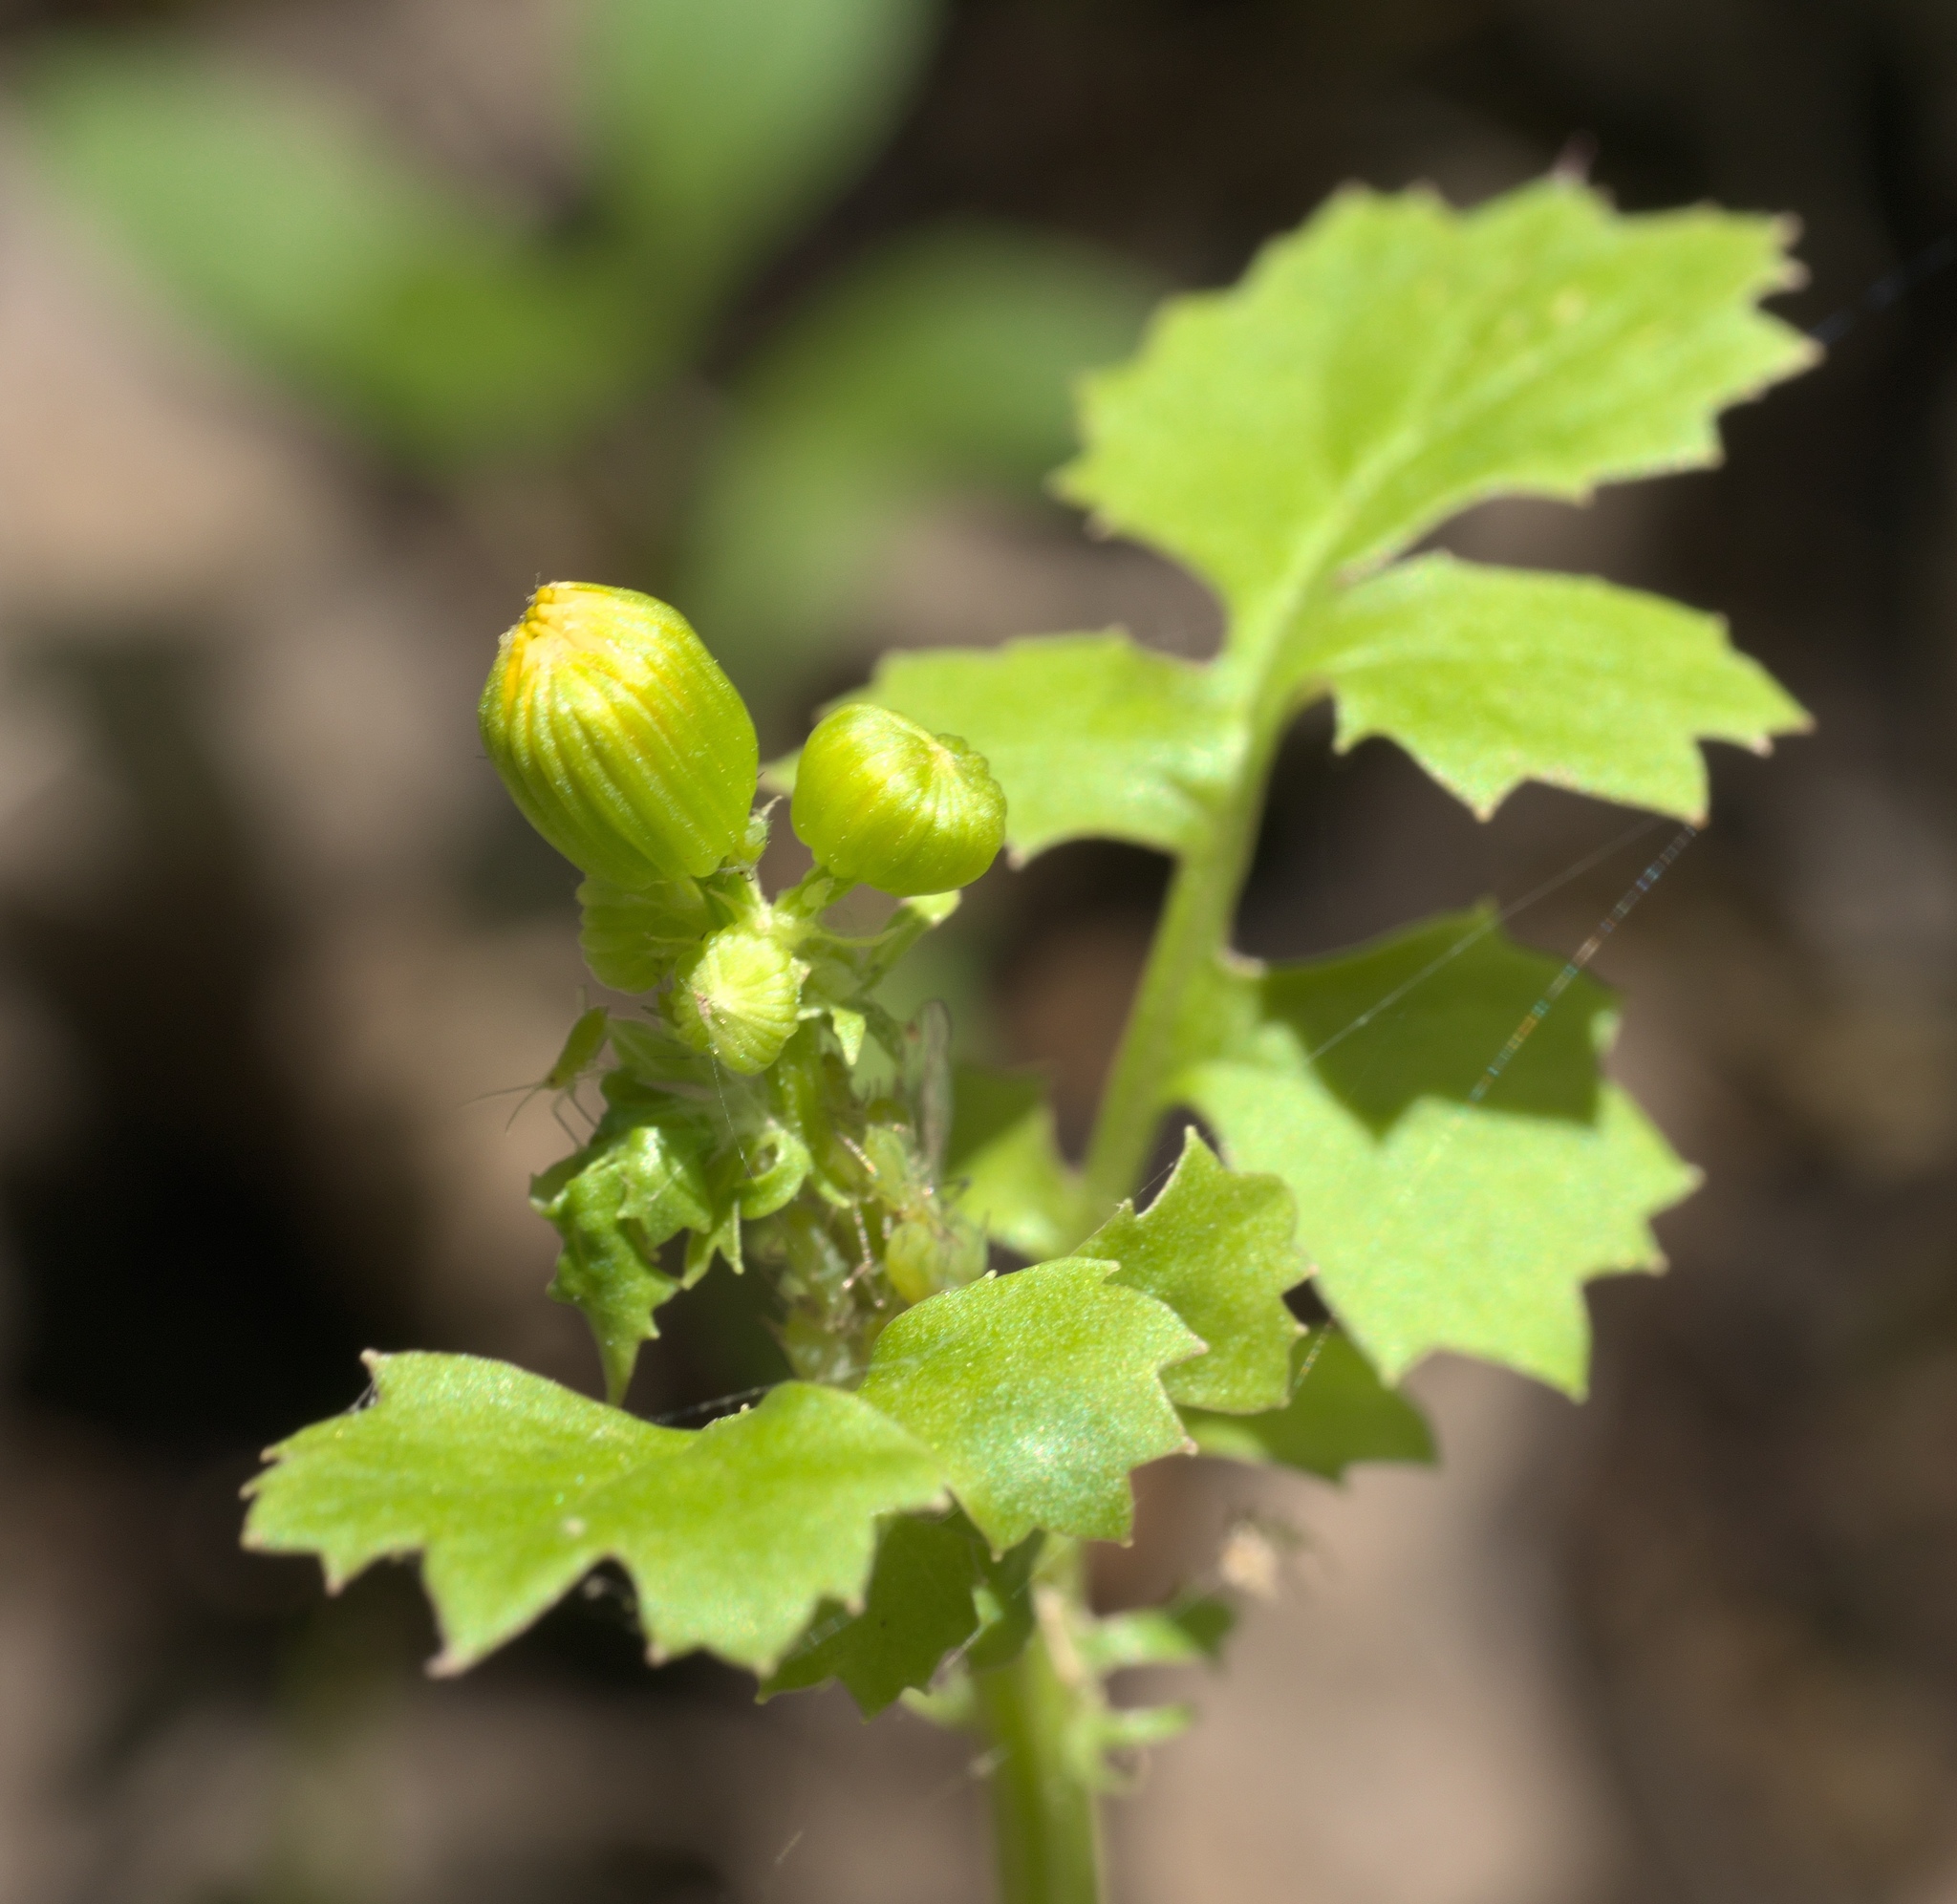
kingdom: Plantae
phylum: Tracheophyta
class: Magnoliopsida
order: Asterales
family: Asteraceae
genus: Packera
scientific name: Packera glabella
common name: Butterweed
